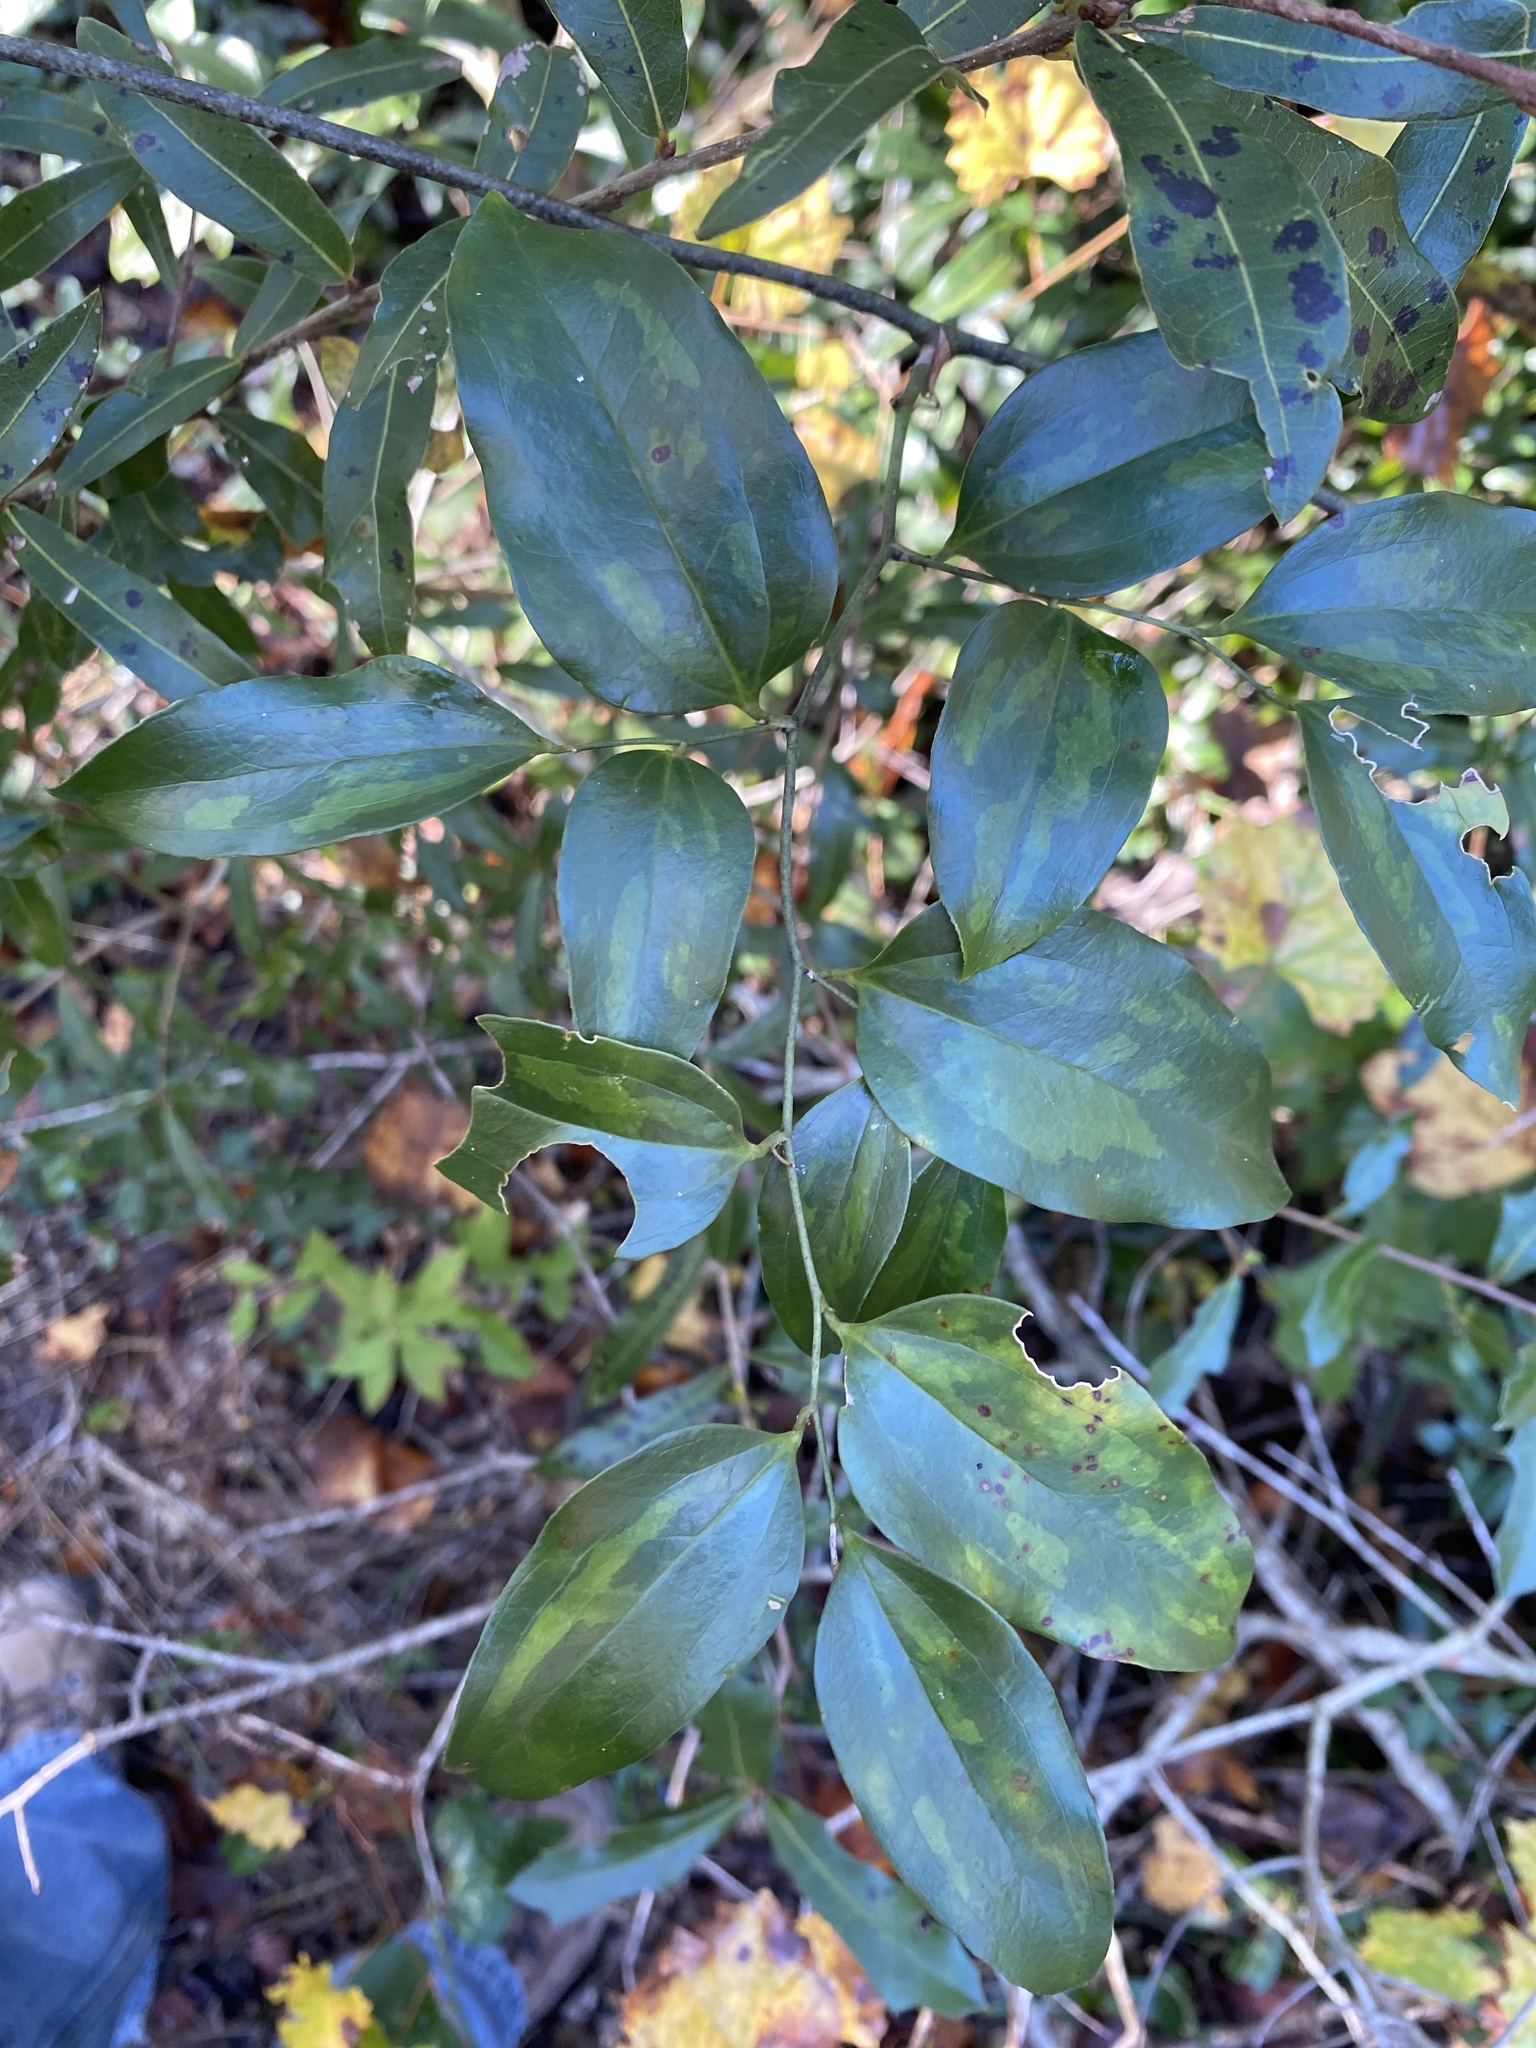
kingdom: Plantae
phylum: Tracheophyta
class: Liliopsida
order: Liliales
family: Smilacaceae
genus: Smilax
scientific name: Smilax maritima
